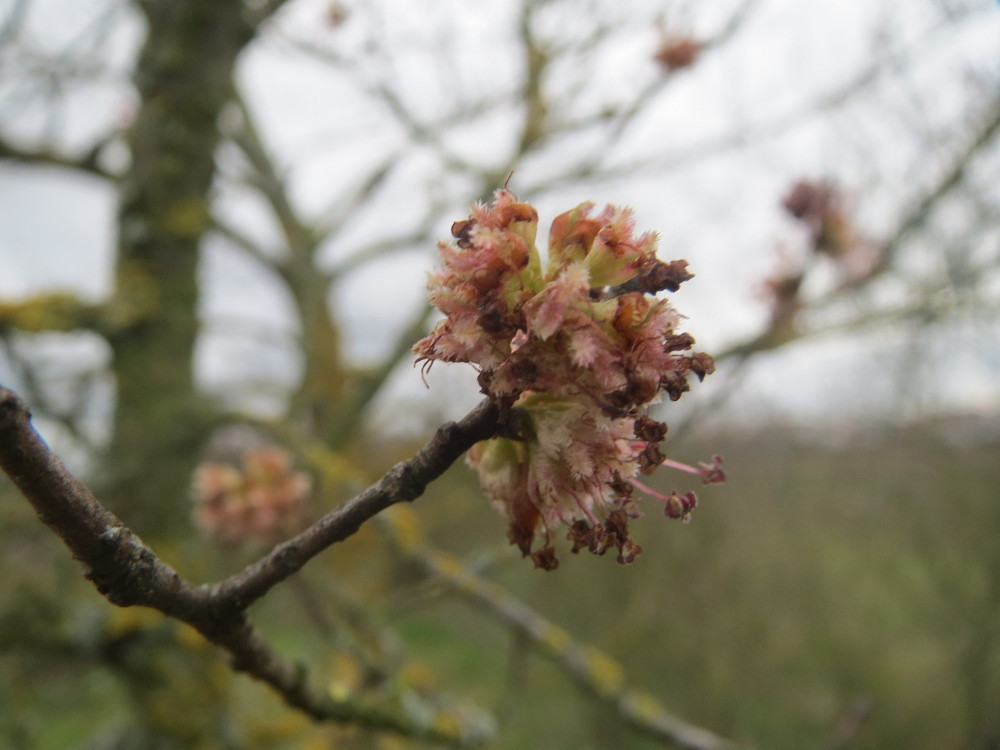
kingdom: Plantae
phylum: Tracheophyta
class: Magnoliopsida
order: Rosales
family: Ulmaceae
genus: Ulmus
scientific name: Ulmus minor
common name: Small-leaved elm
